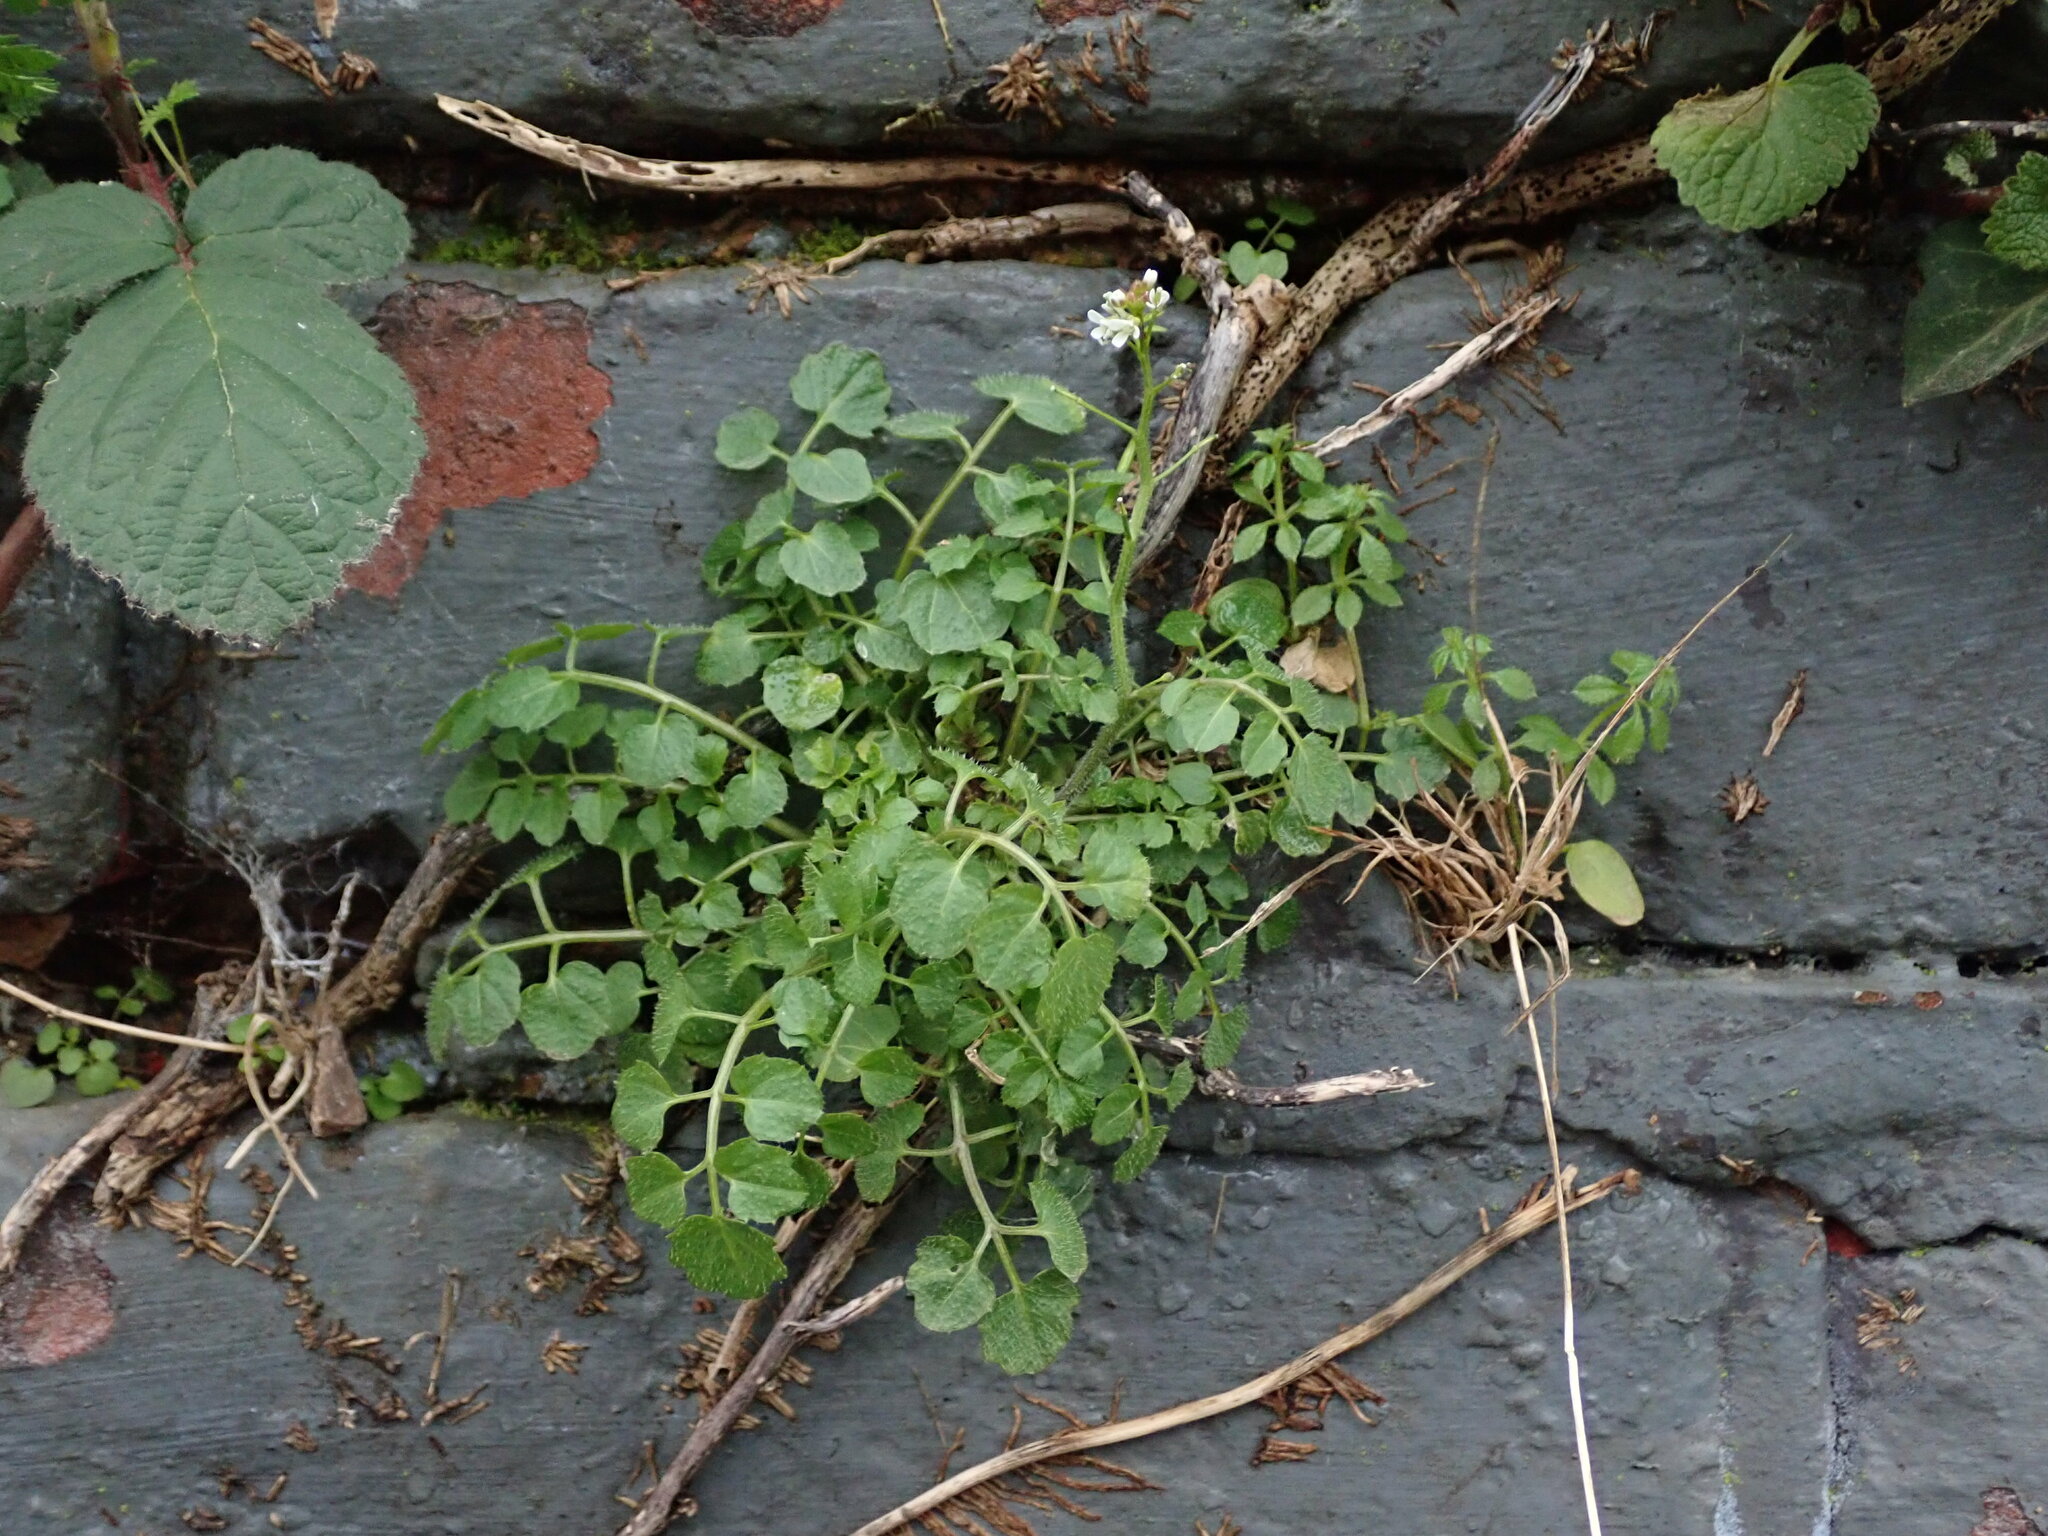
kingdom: Plantae
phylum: Tracheophyta
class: Magnoliopsida
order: Brassicales
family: Brassicaceae
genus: Cardamine
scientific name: Cardamine flexuosa
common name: Woodland bittercress
